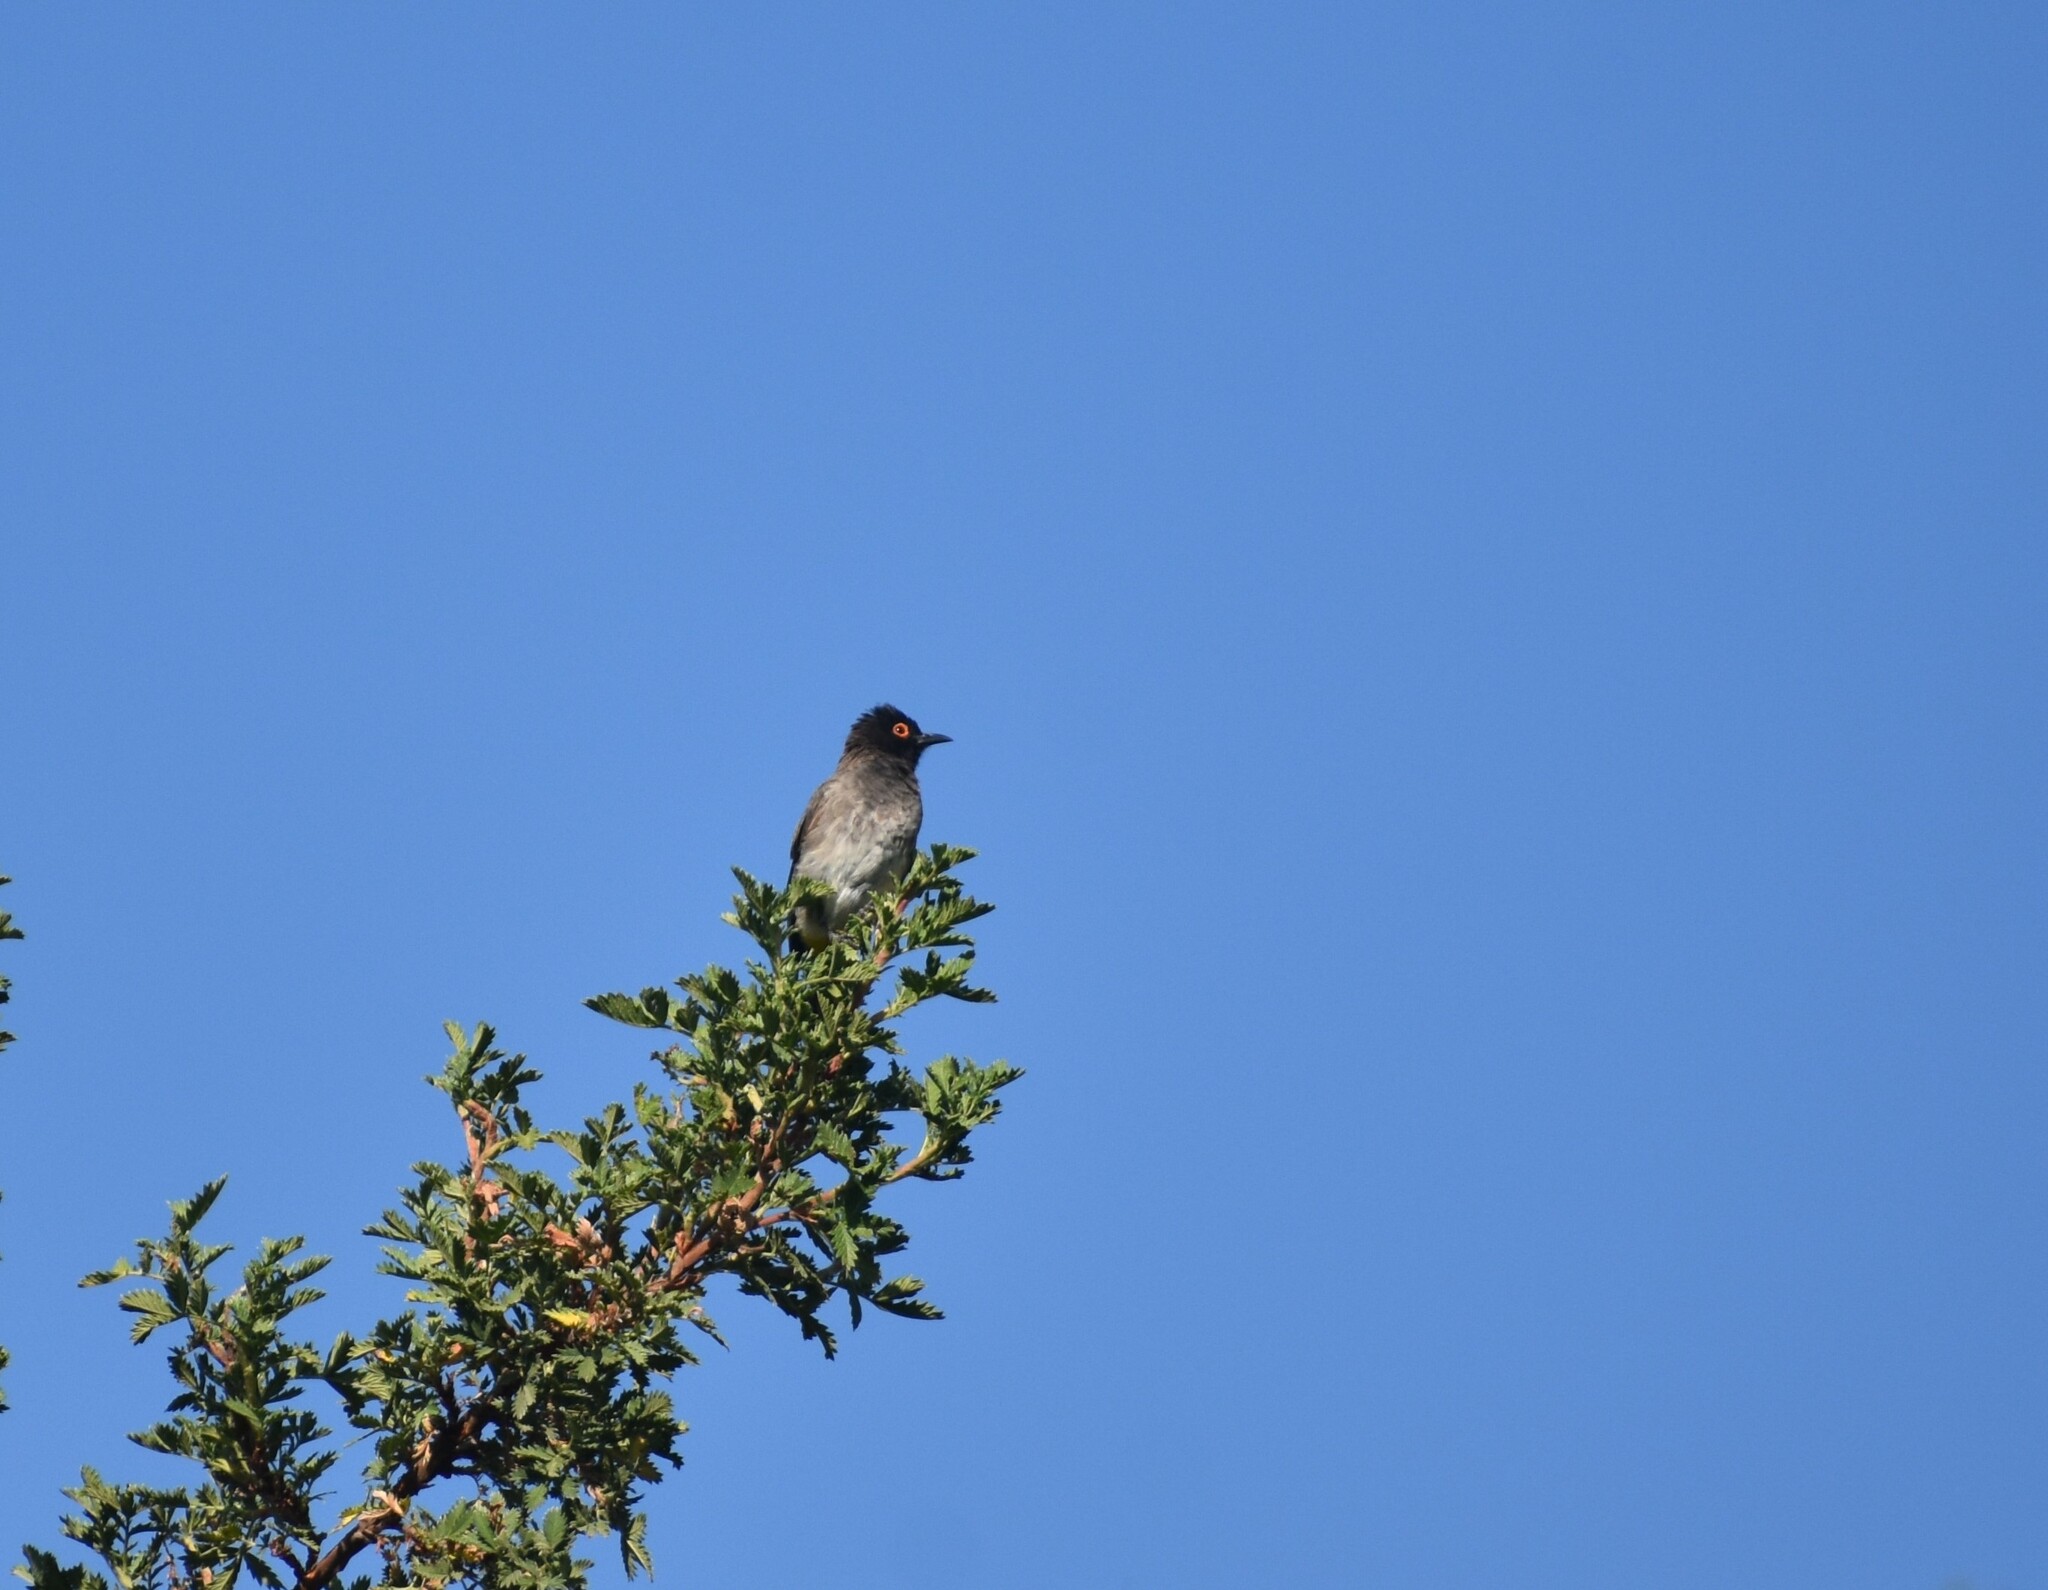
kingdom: Animalia
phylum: Chordata
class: Aves
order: Passeriformes
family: Pycnonotidae
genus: Pycnonotus
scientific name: Pycnonotus nigricans
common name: African red-eyed bulbul
